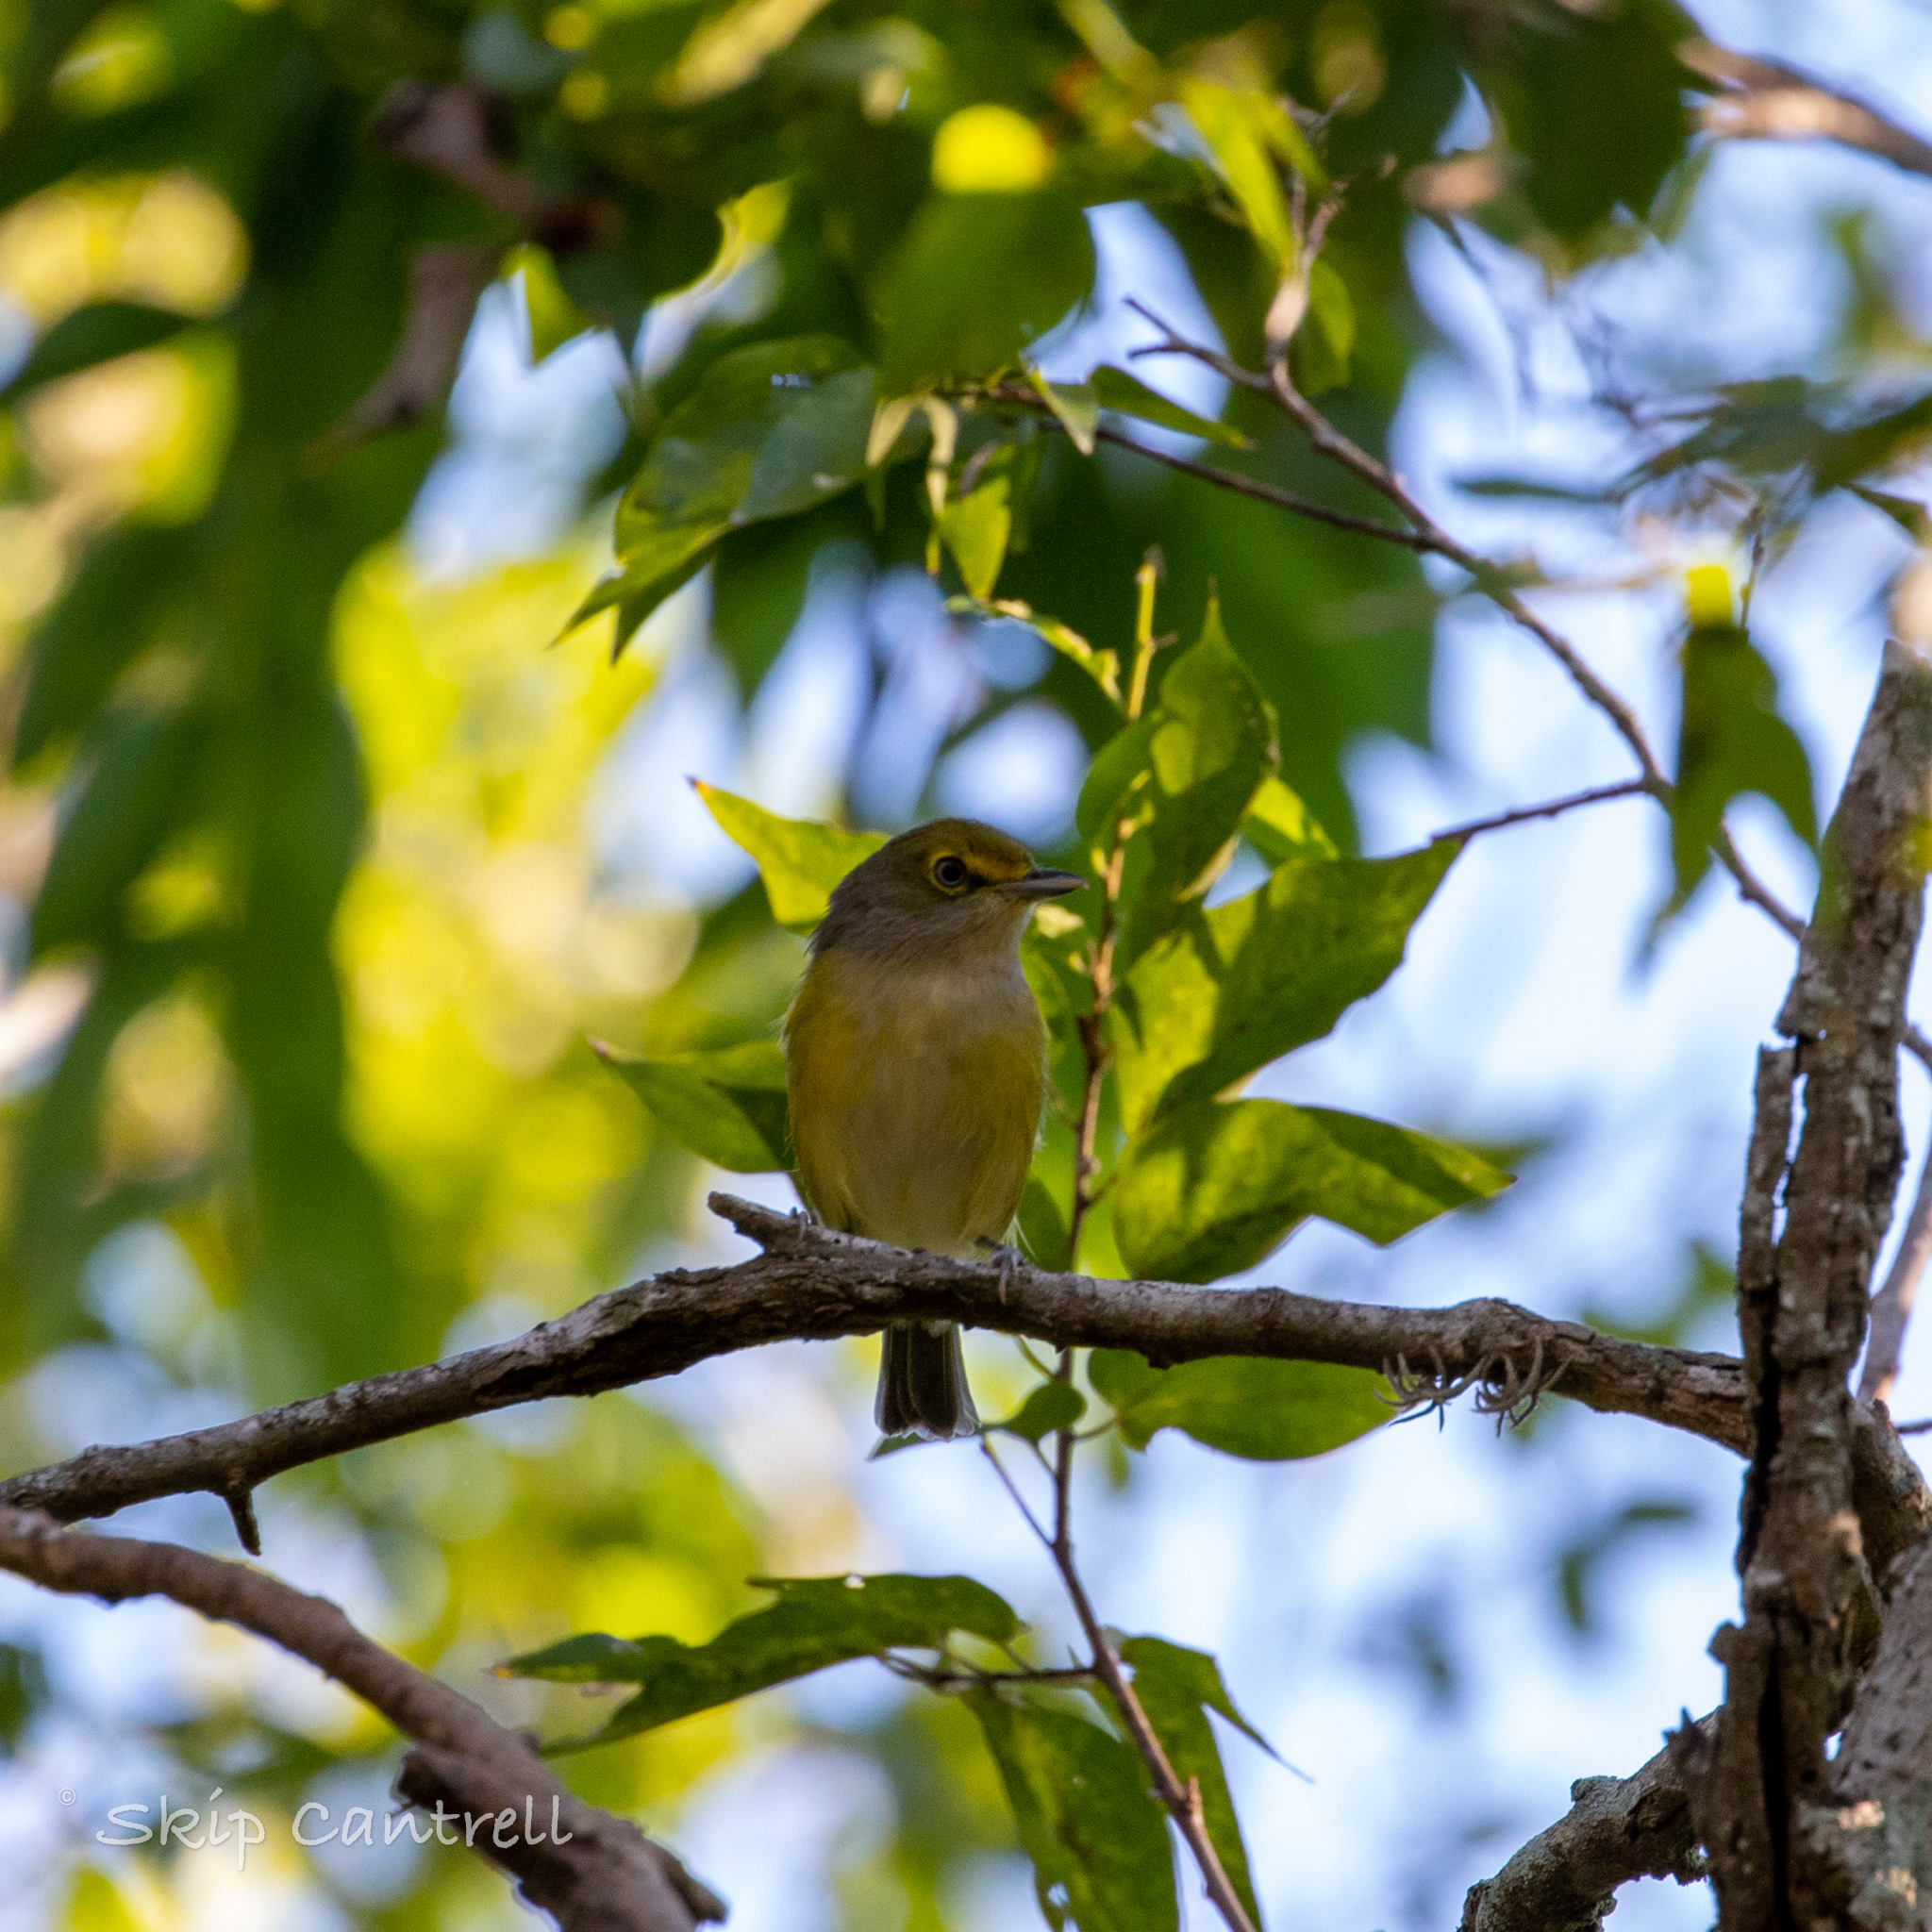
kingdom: Animalia
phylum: Chordata
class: Aves
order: Passeriformes
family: Vireonidae
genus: Vireo
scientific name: Vireo griseus
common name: White-eyed vireo
